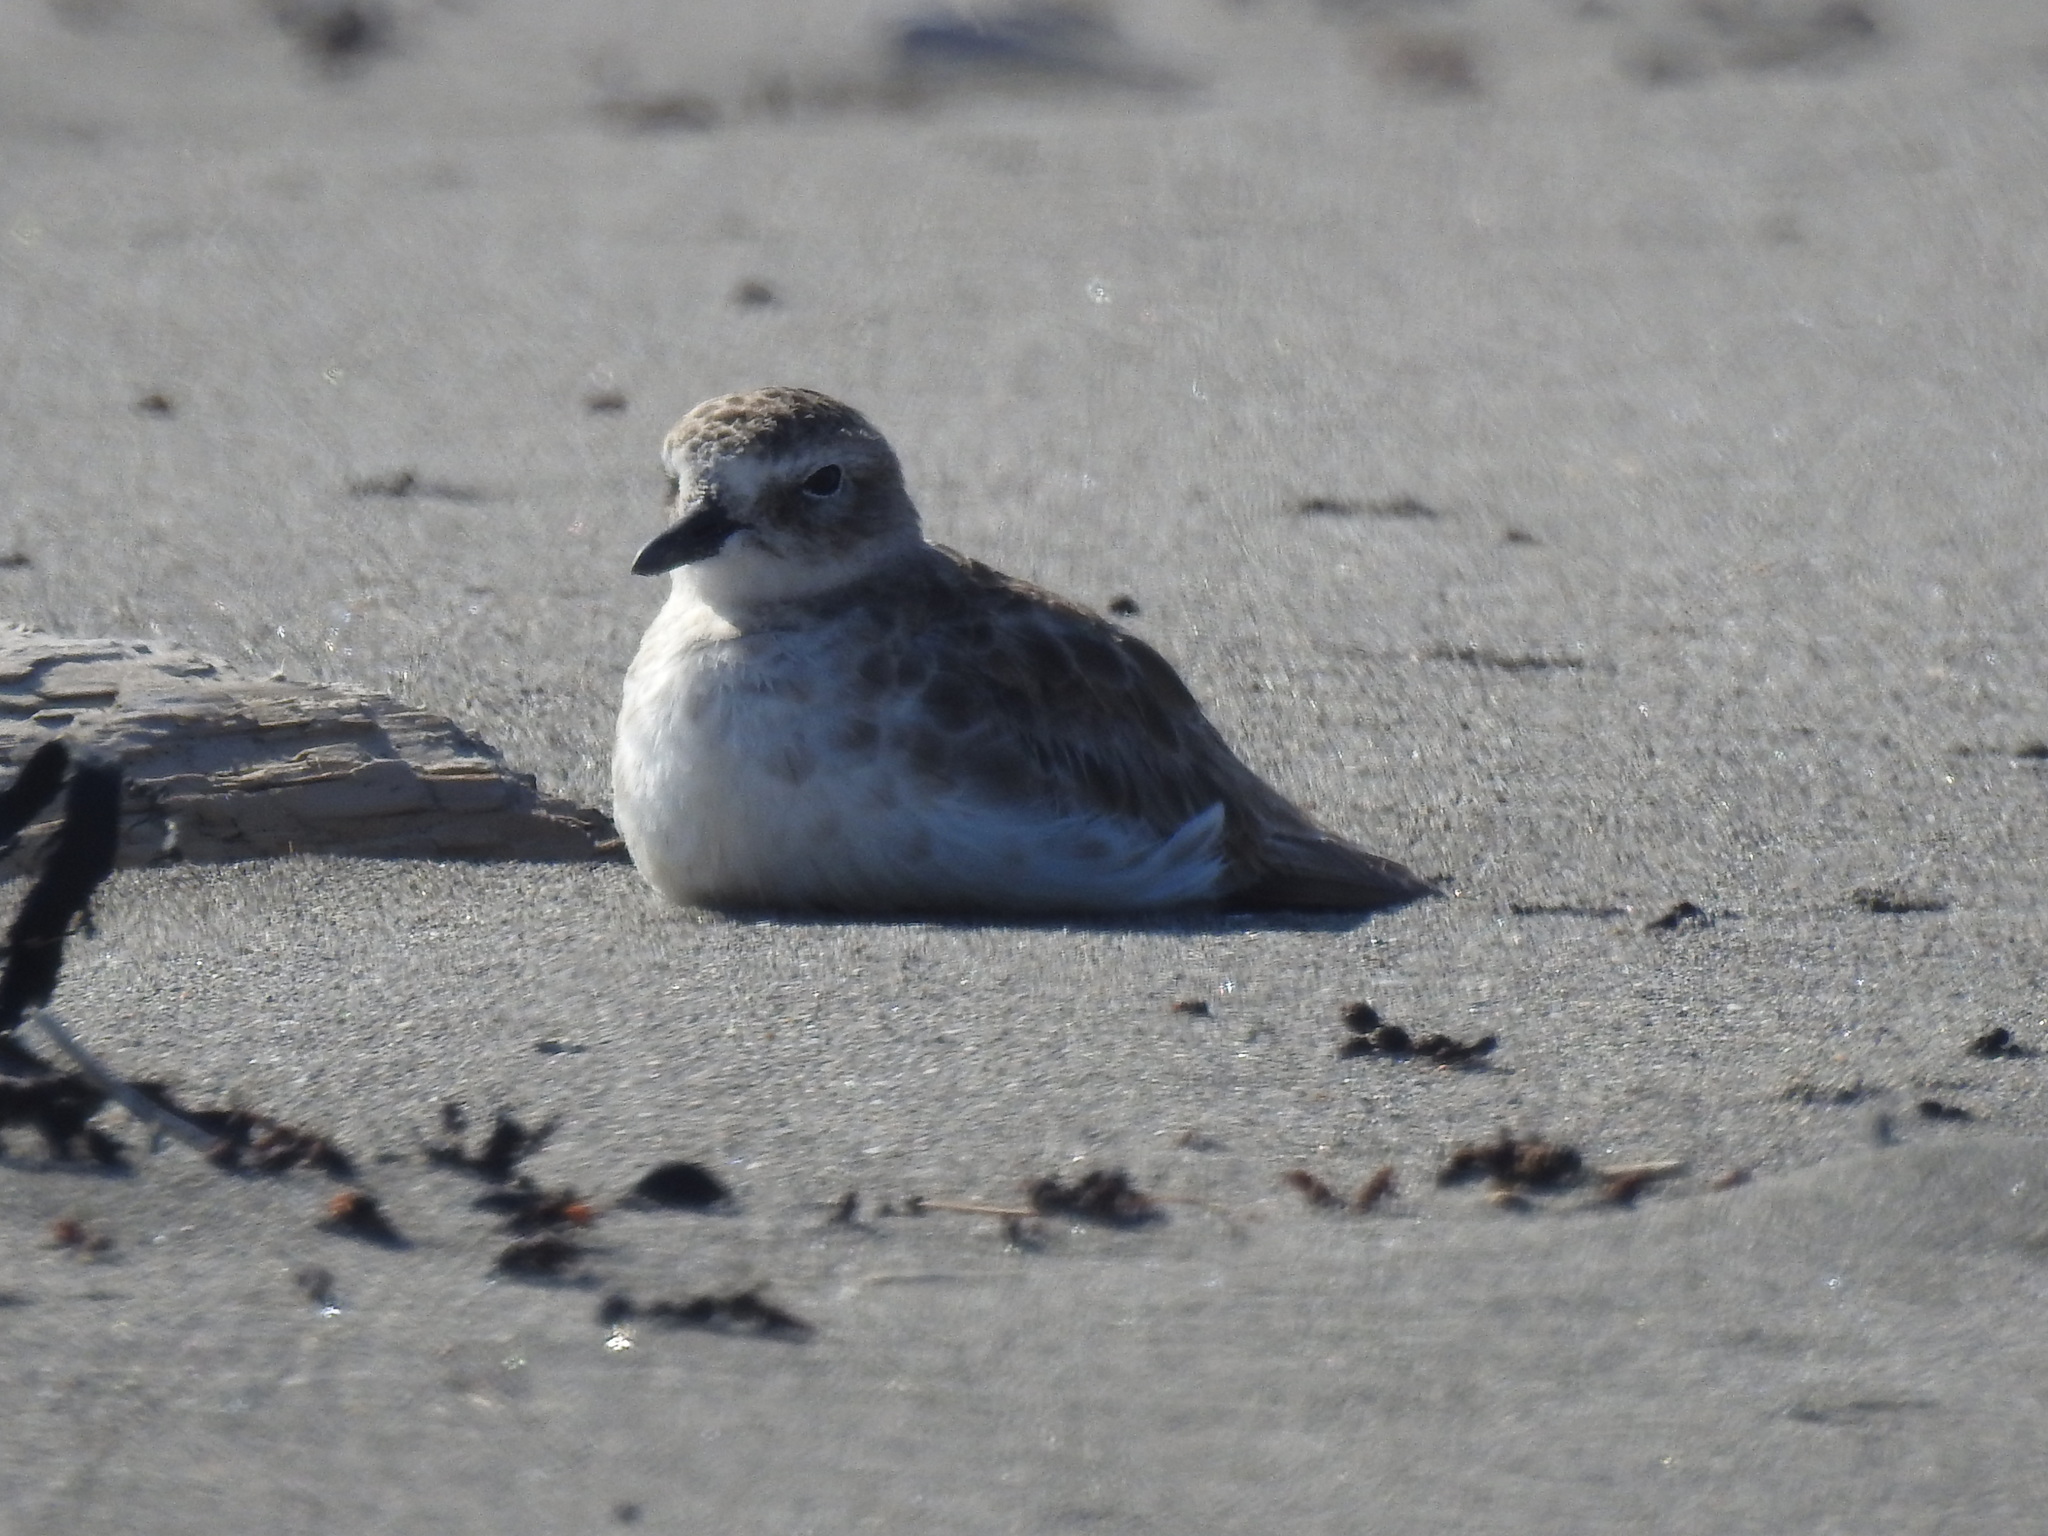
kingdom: Animalia
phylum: Chordata
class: Aves
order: Charadriiformes
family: Charadriidae
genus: Anarhynchus
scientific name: Anarhynchus
